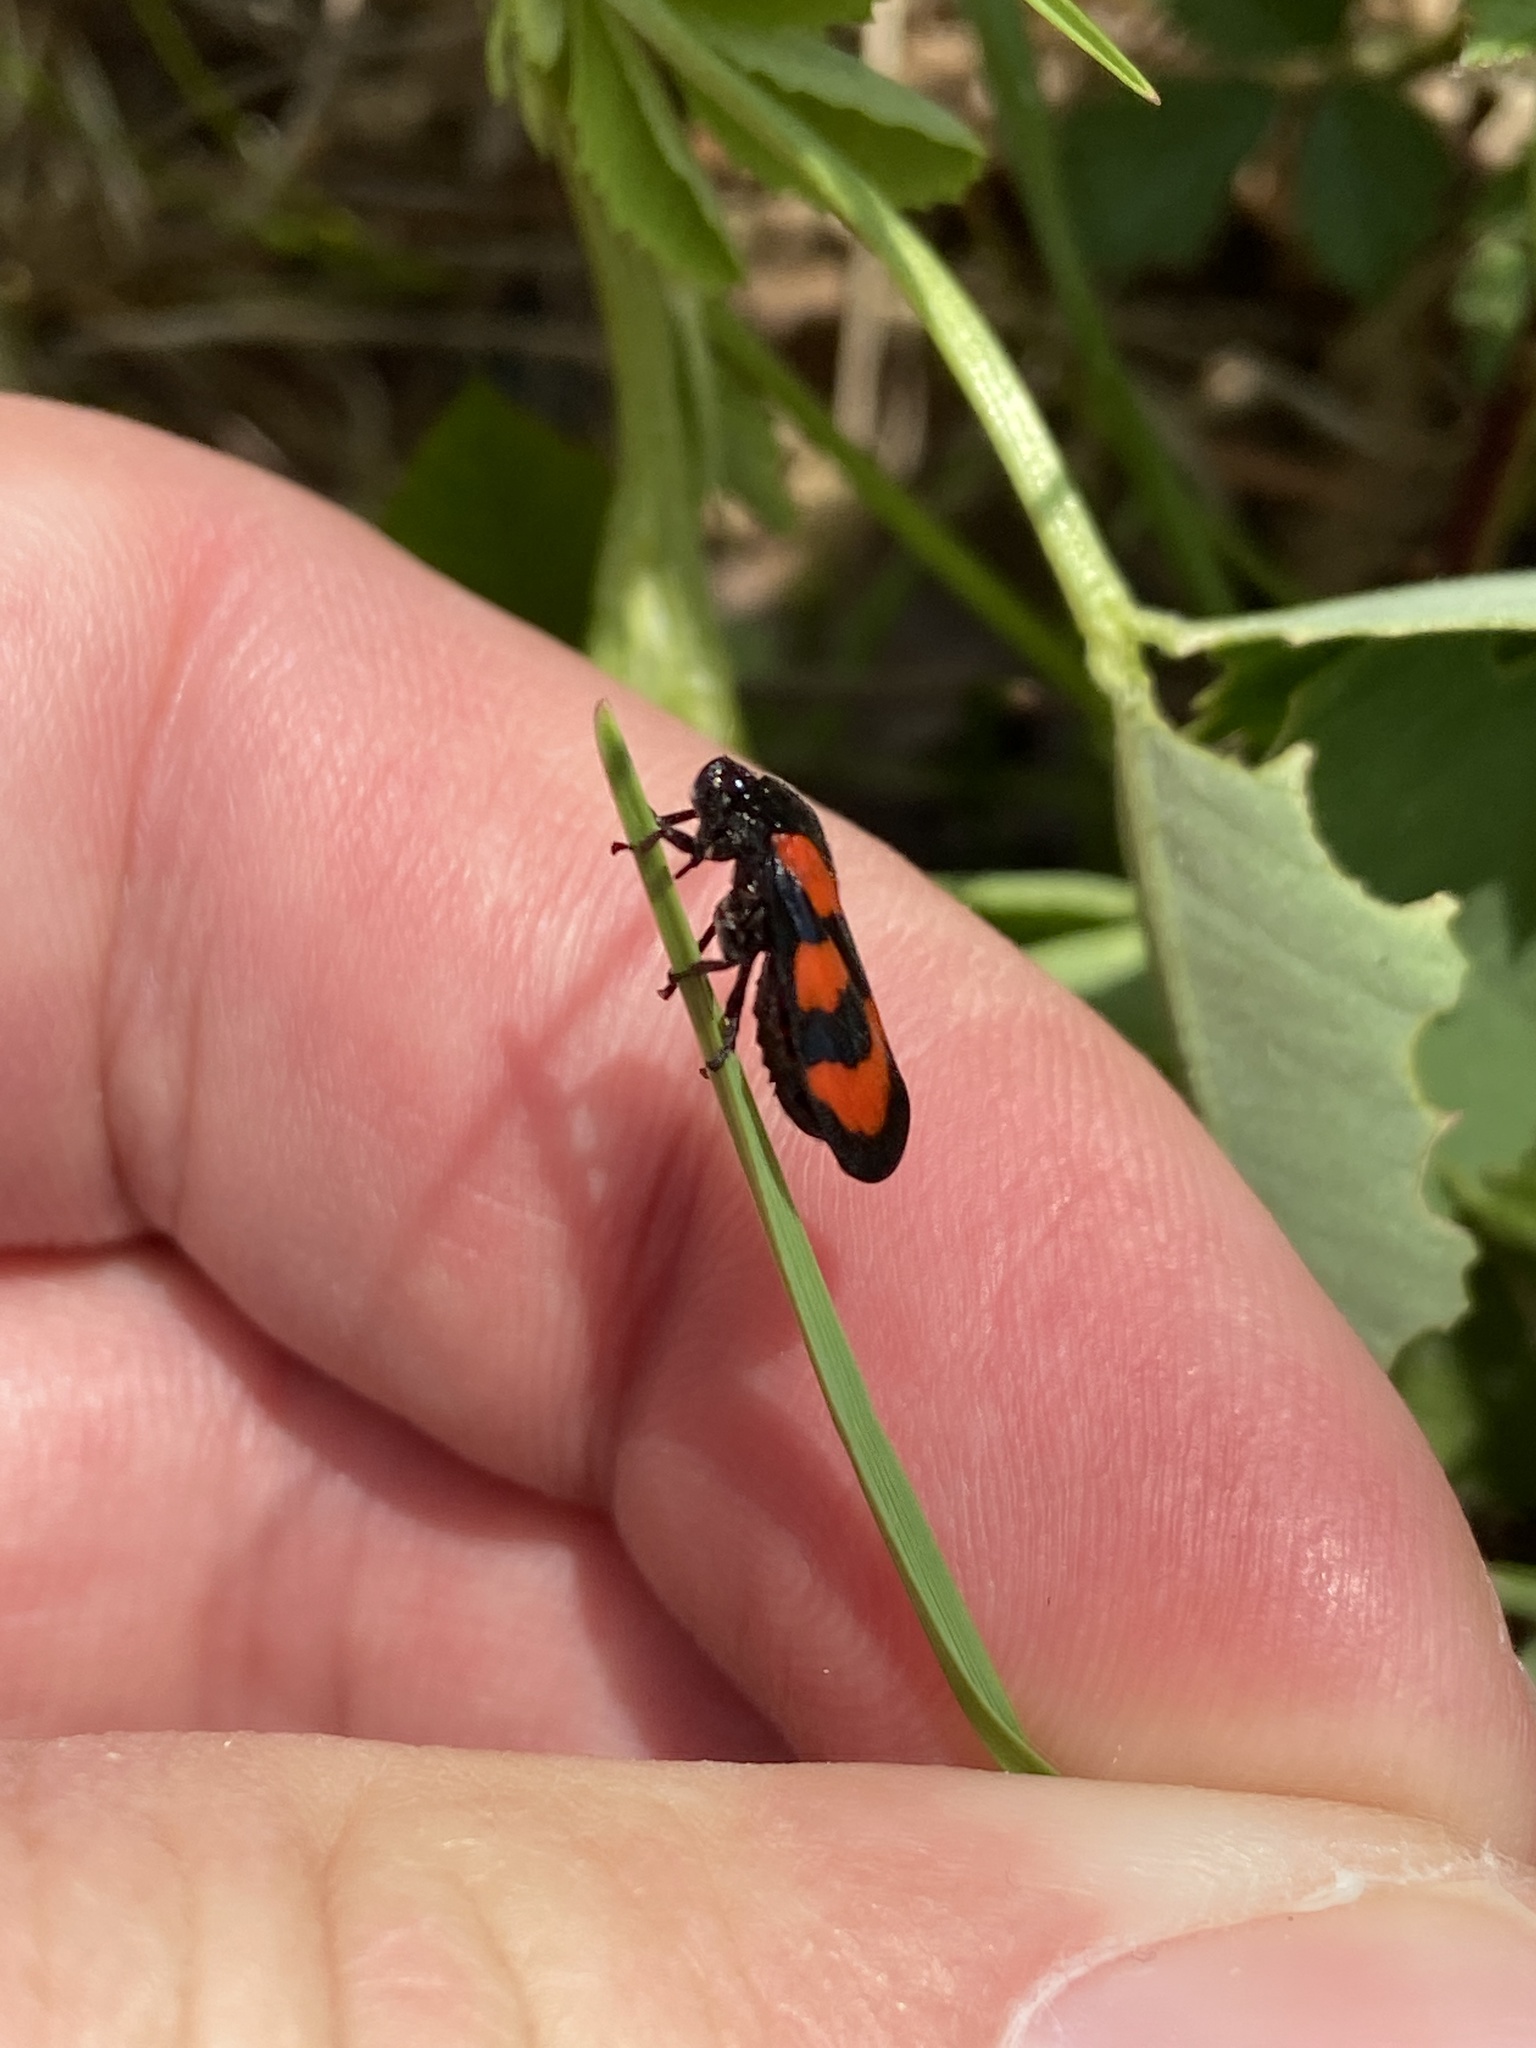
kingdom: Animalia
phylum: Arthropoda
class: Insecta
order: Hemiptera
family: Cercopidae
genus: Cercopis
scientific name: Cercopis vulnerata
